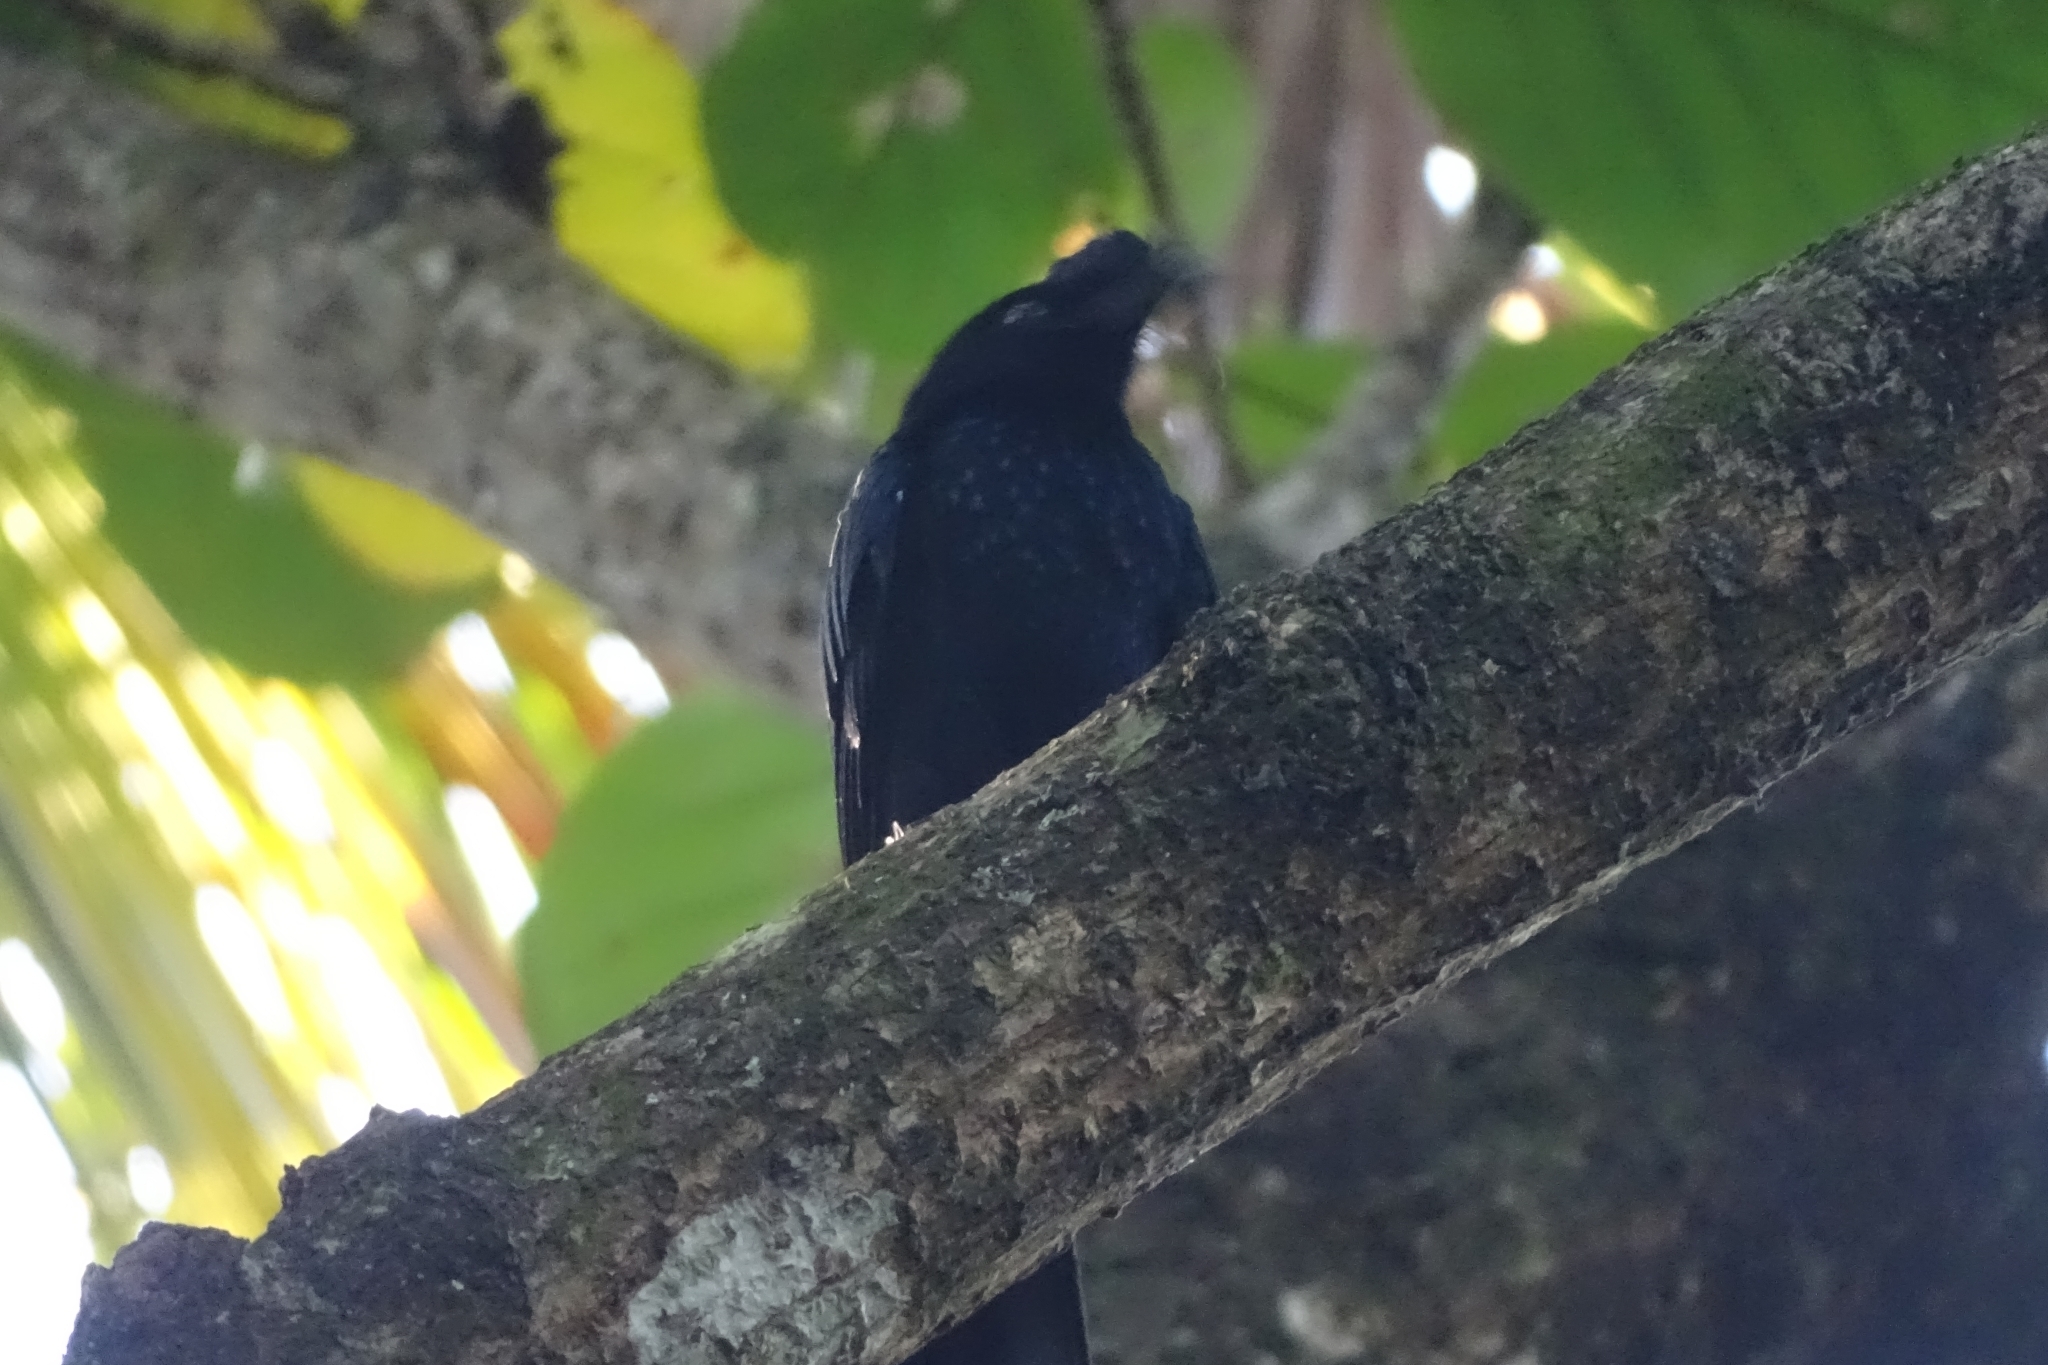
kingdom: Animalia
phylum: Chordata
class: Aves
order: Passeriformes
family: Dicruridae
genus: Dicrurus
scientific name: Dicrurus paradiseus
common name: Greater racket-tailed drongo
